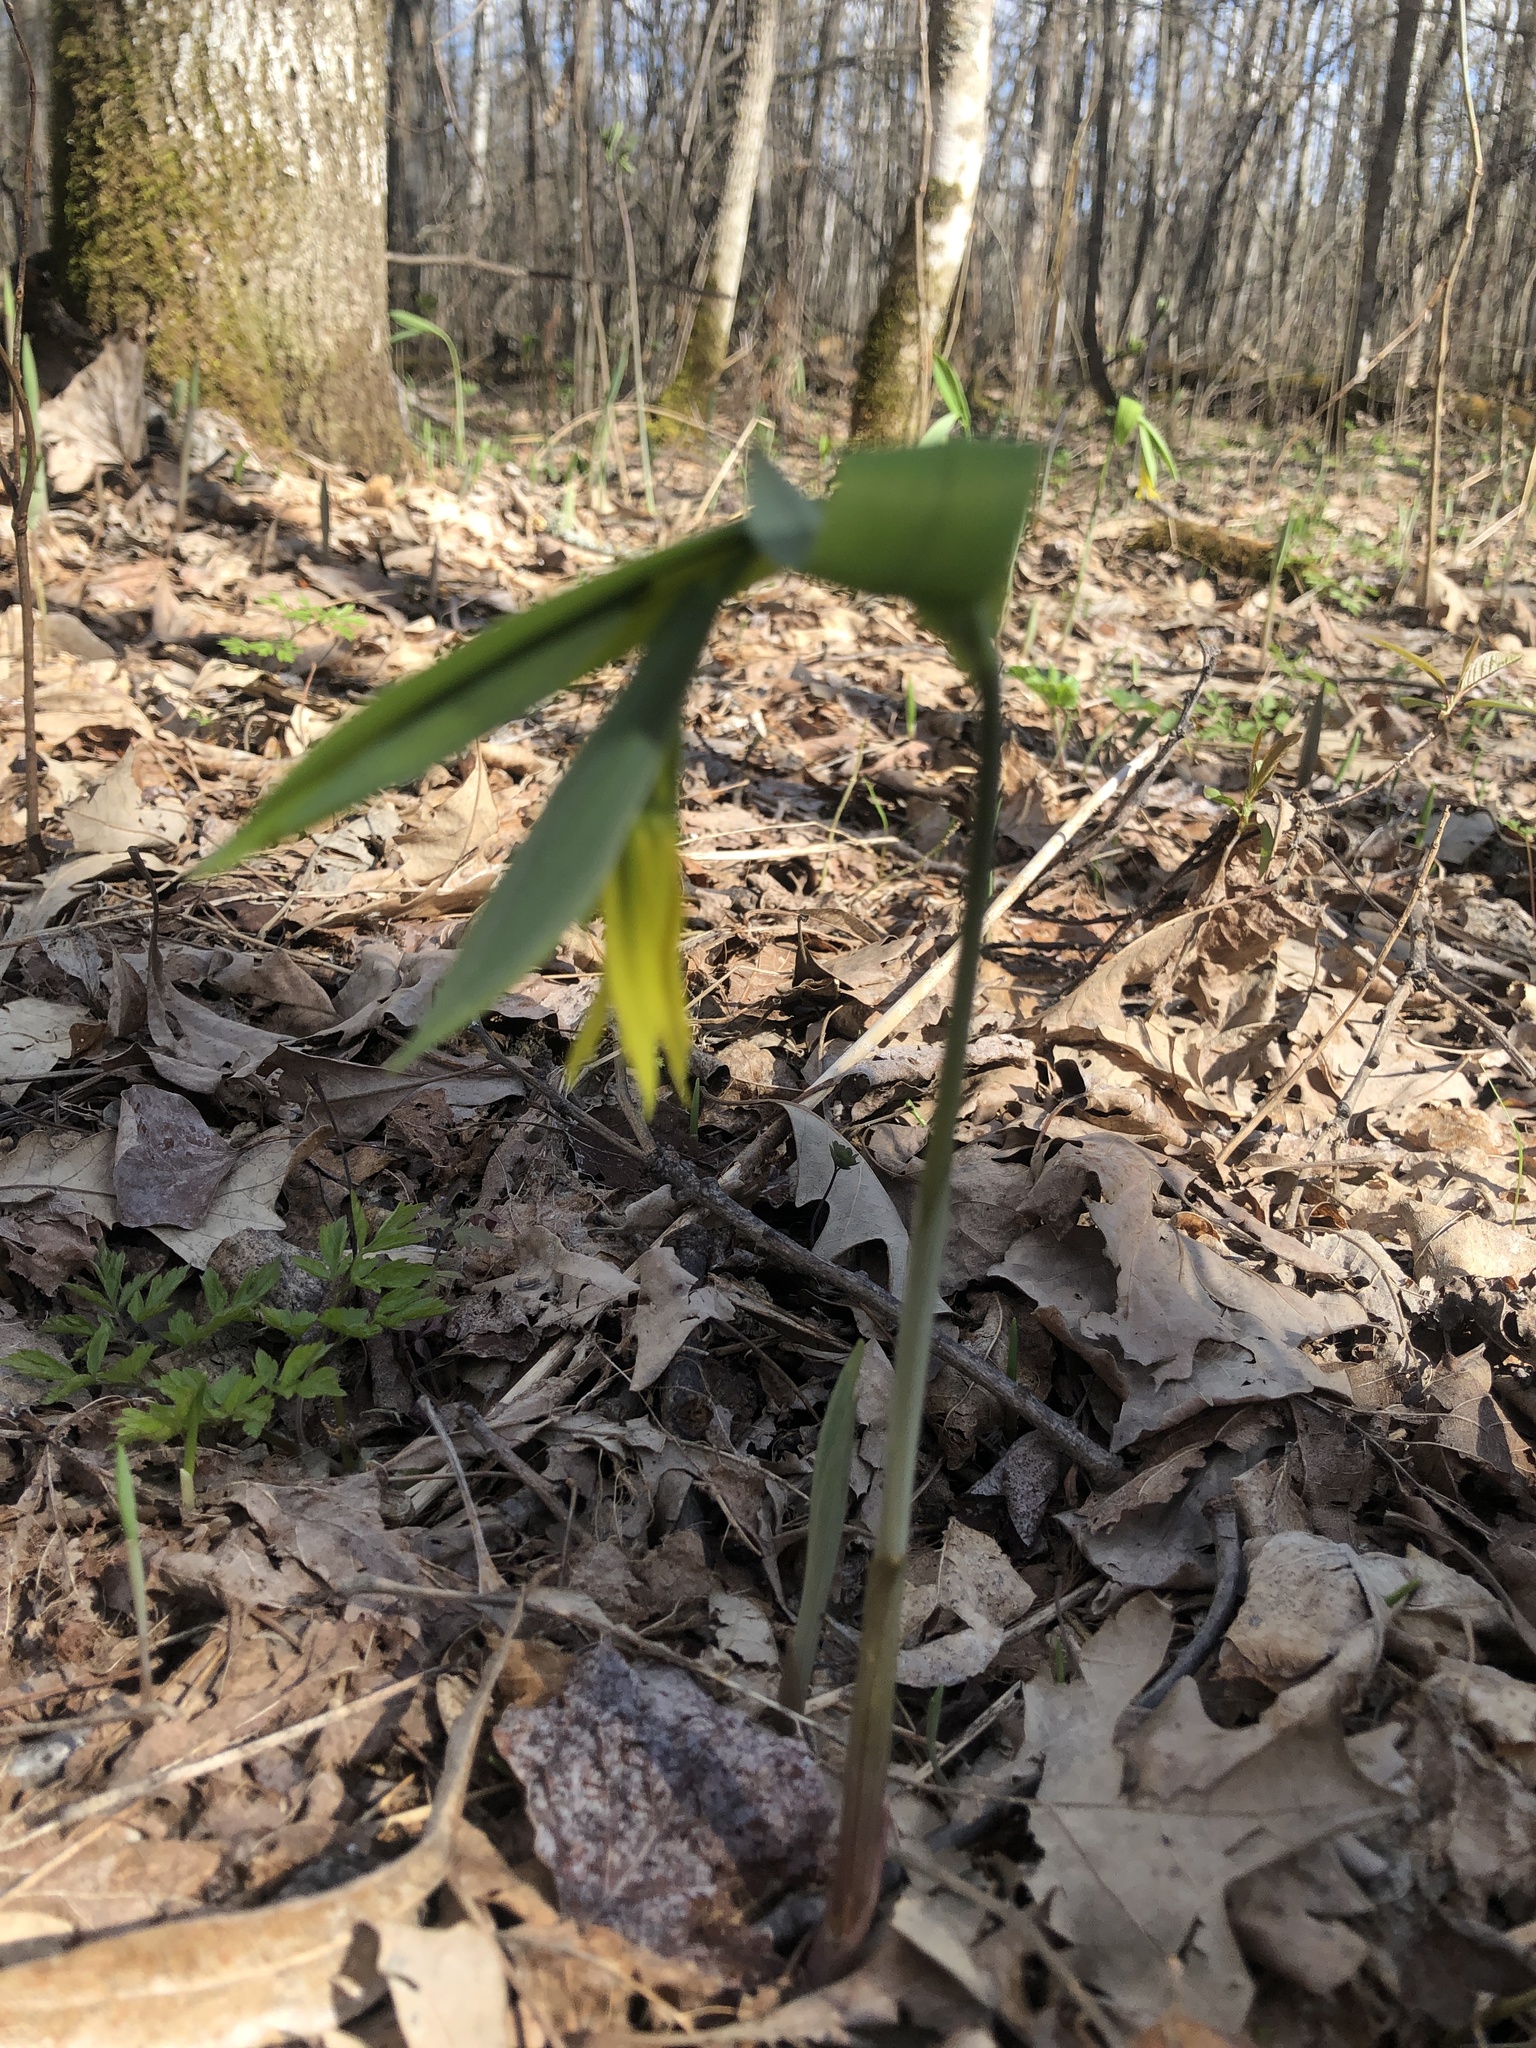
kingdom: Plantae
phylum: Tracheophyta
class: Liliopsida
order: Liliales
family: Colchicaceae
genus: Uvularia
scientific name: Uvularia grandiflora
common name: Bellwort
